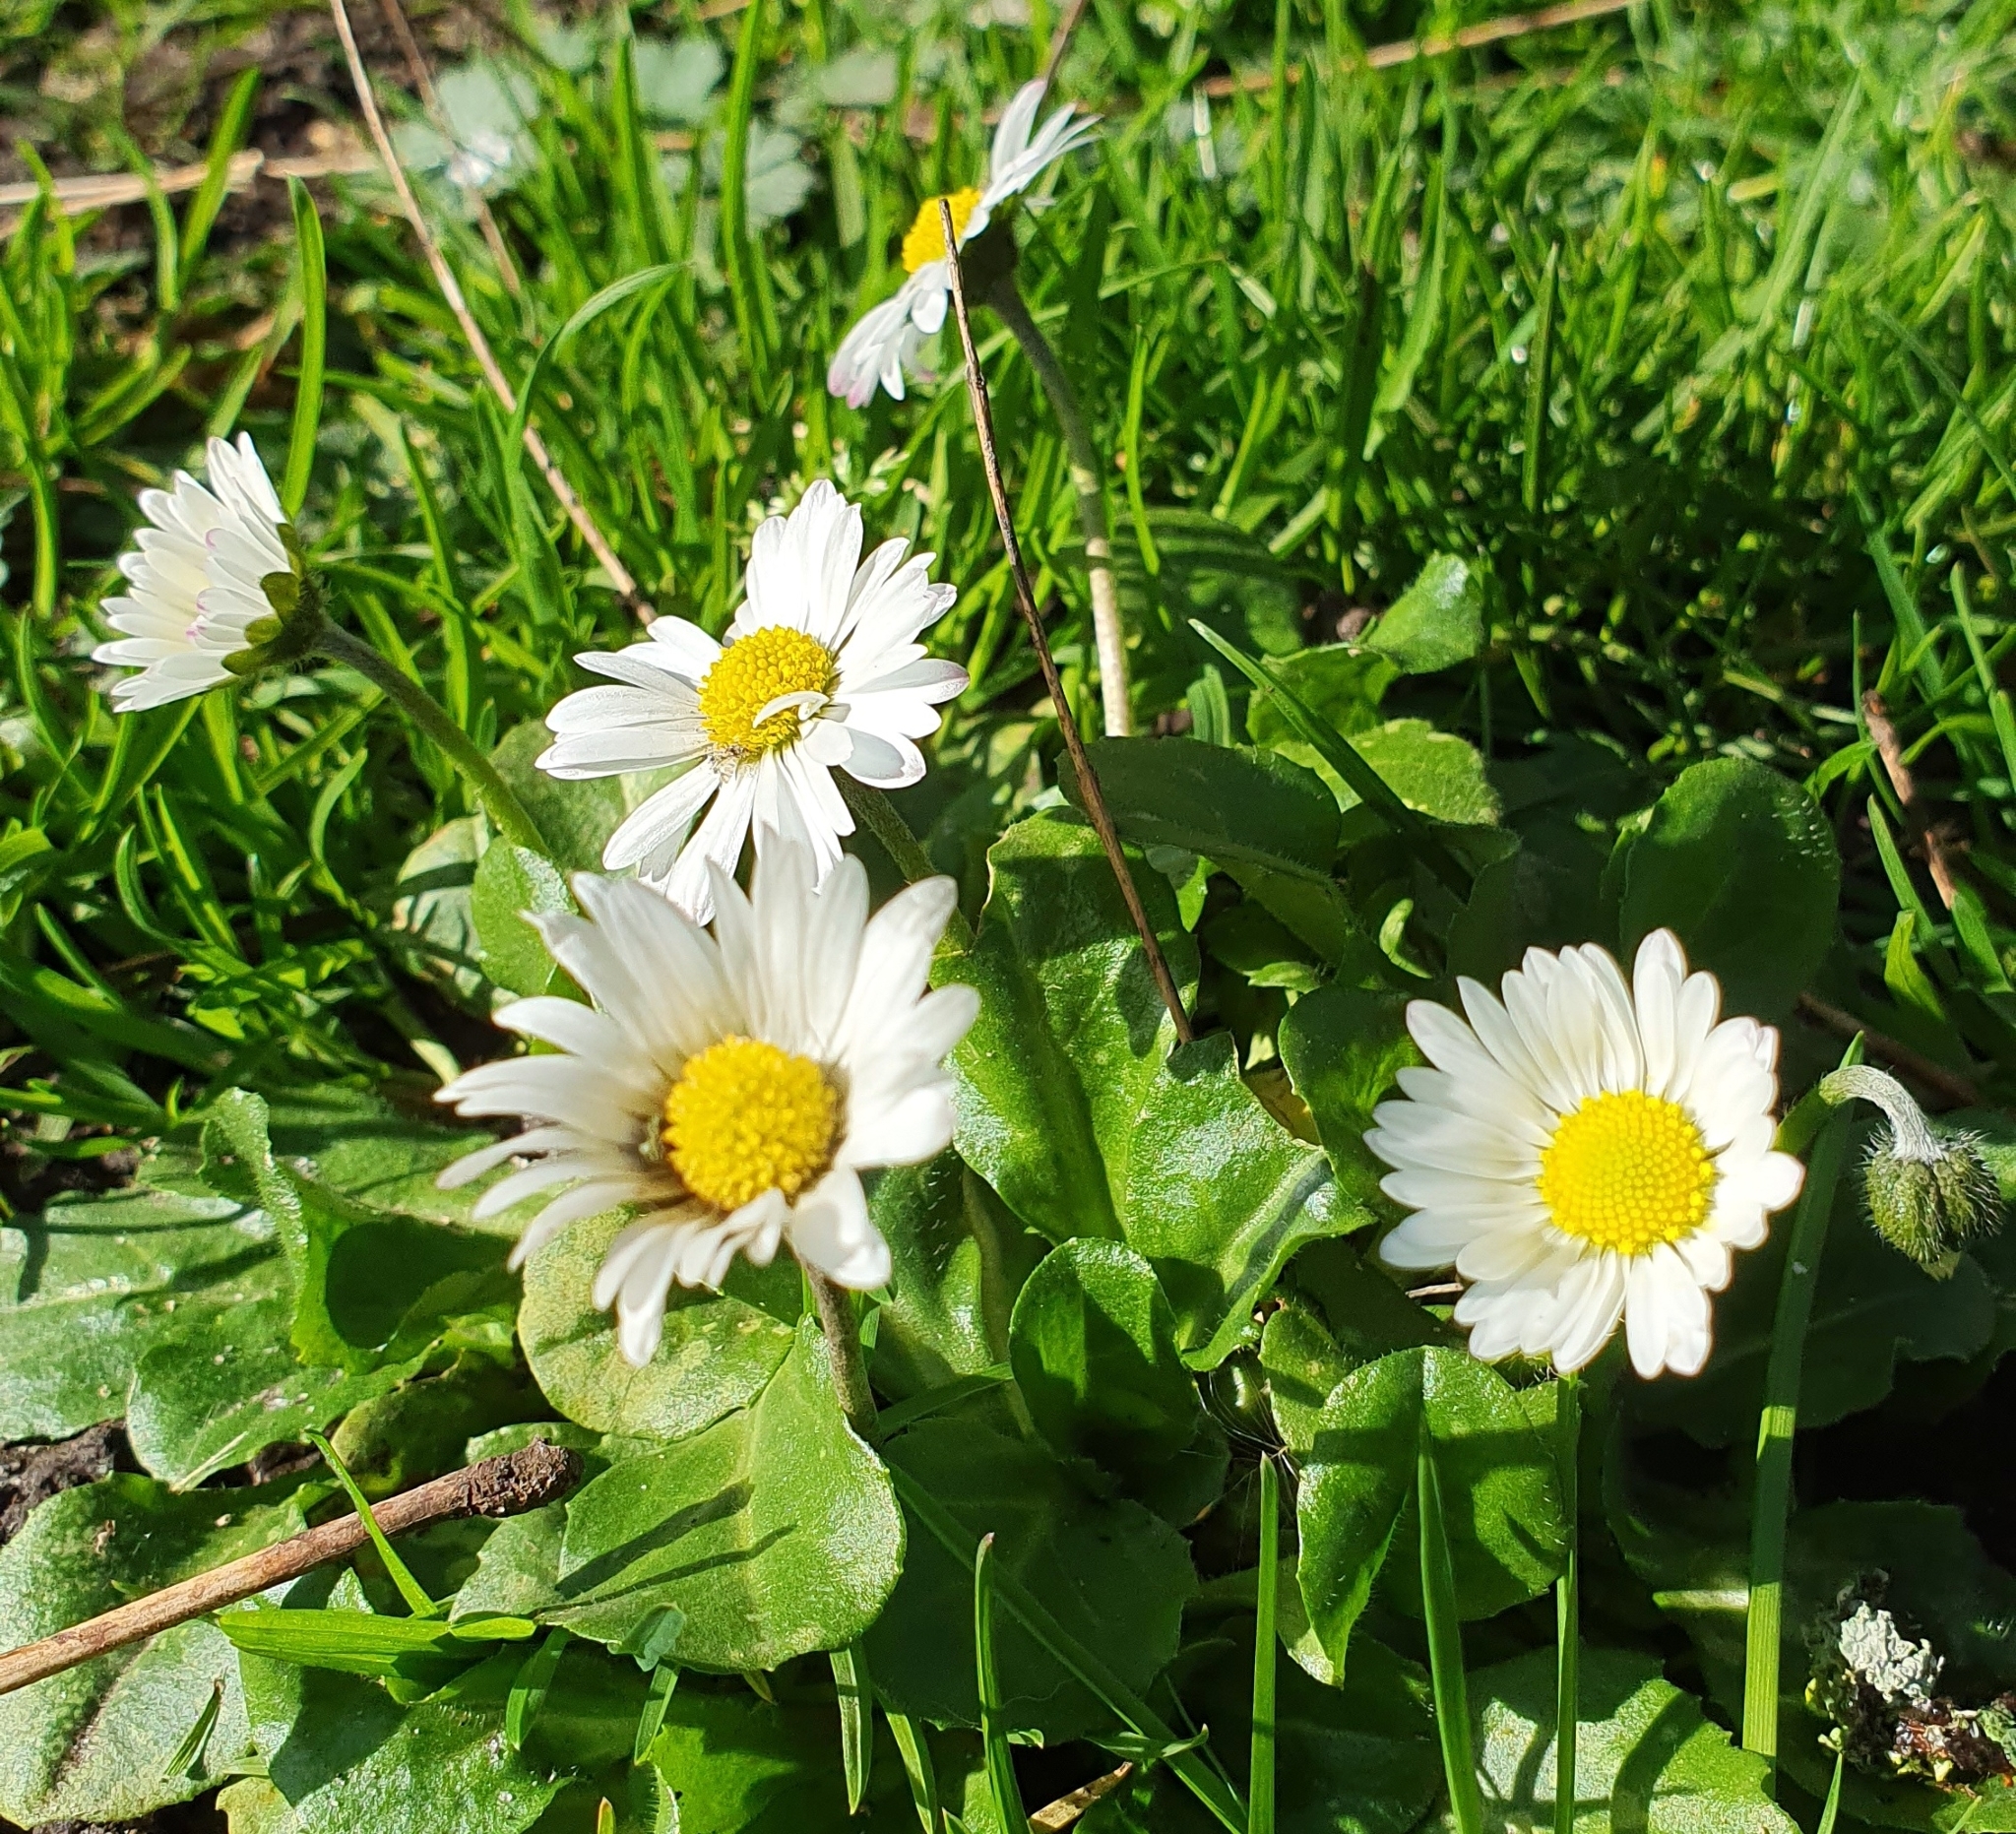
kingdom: Plantae
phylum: Tracheophyta
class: Magnoliopsida
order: Asterales
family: Asteraceae
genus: Bellis
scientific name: Bellis perennis
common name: Lawndaisy
